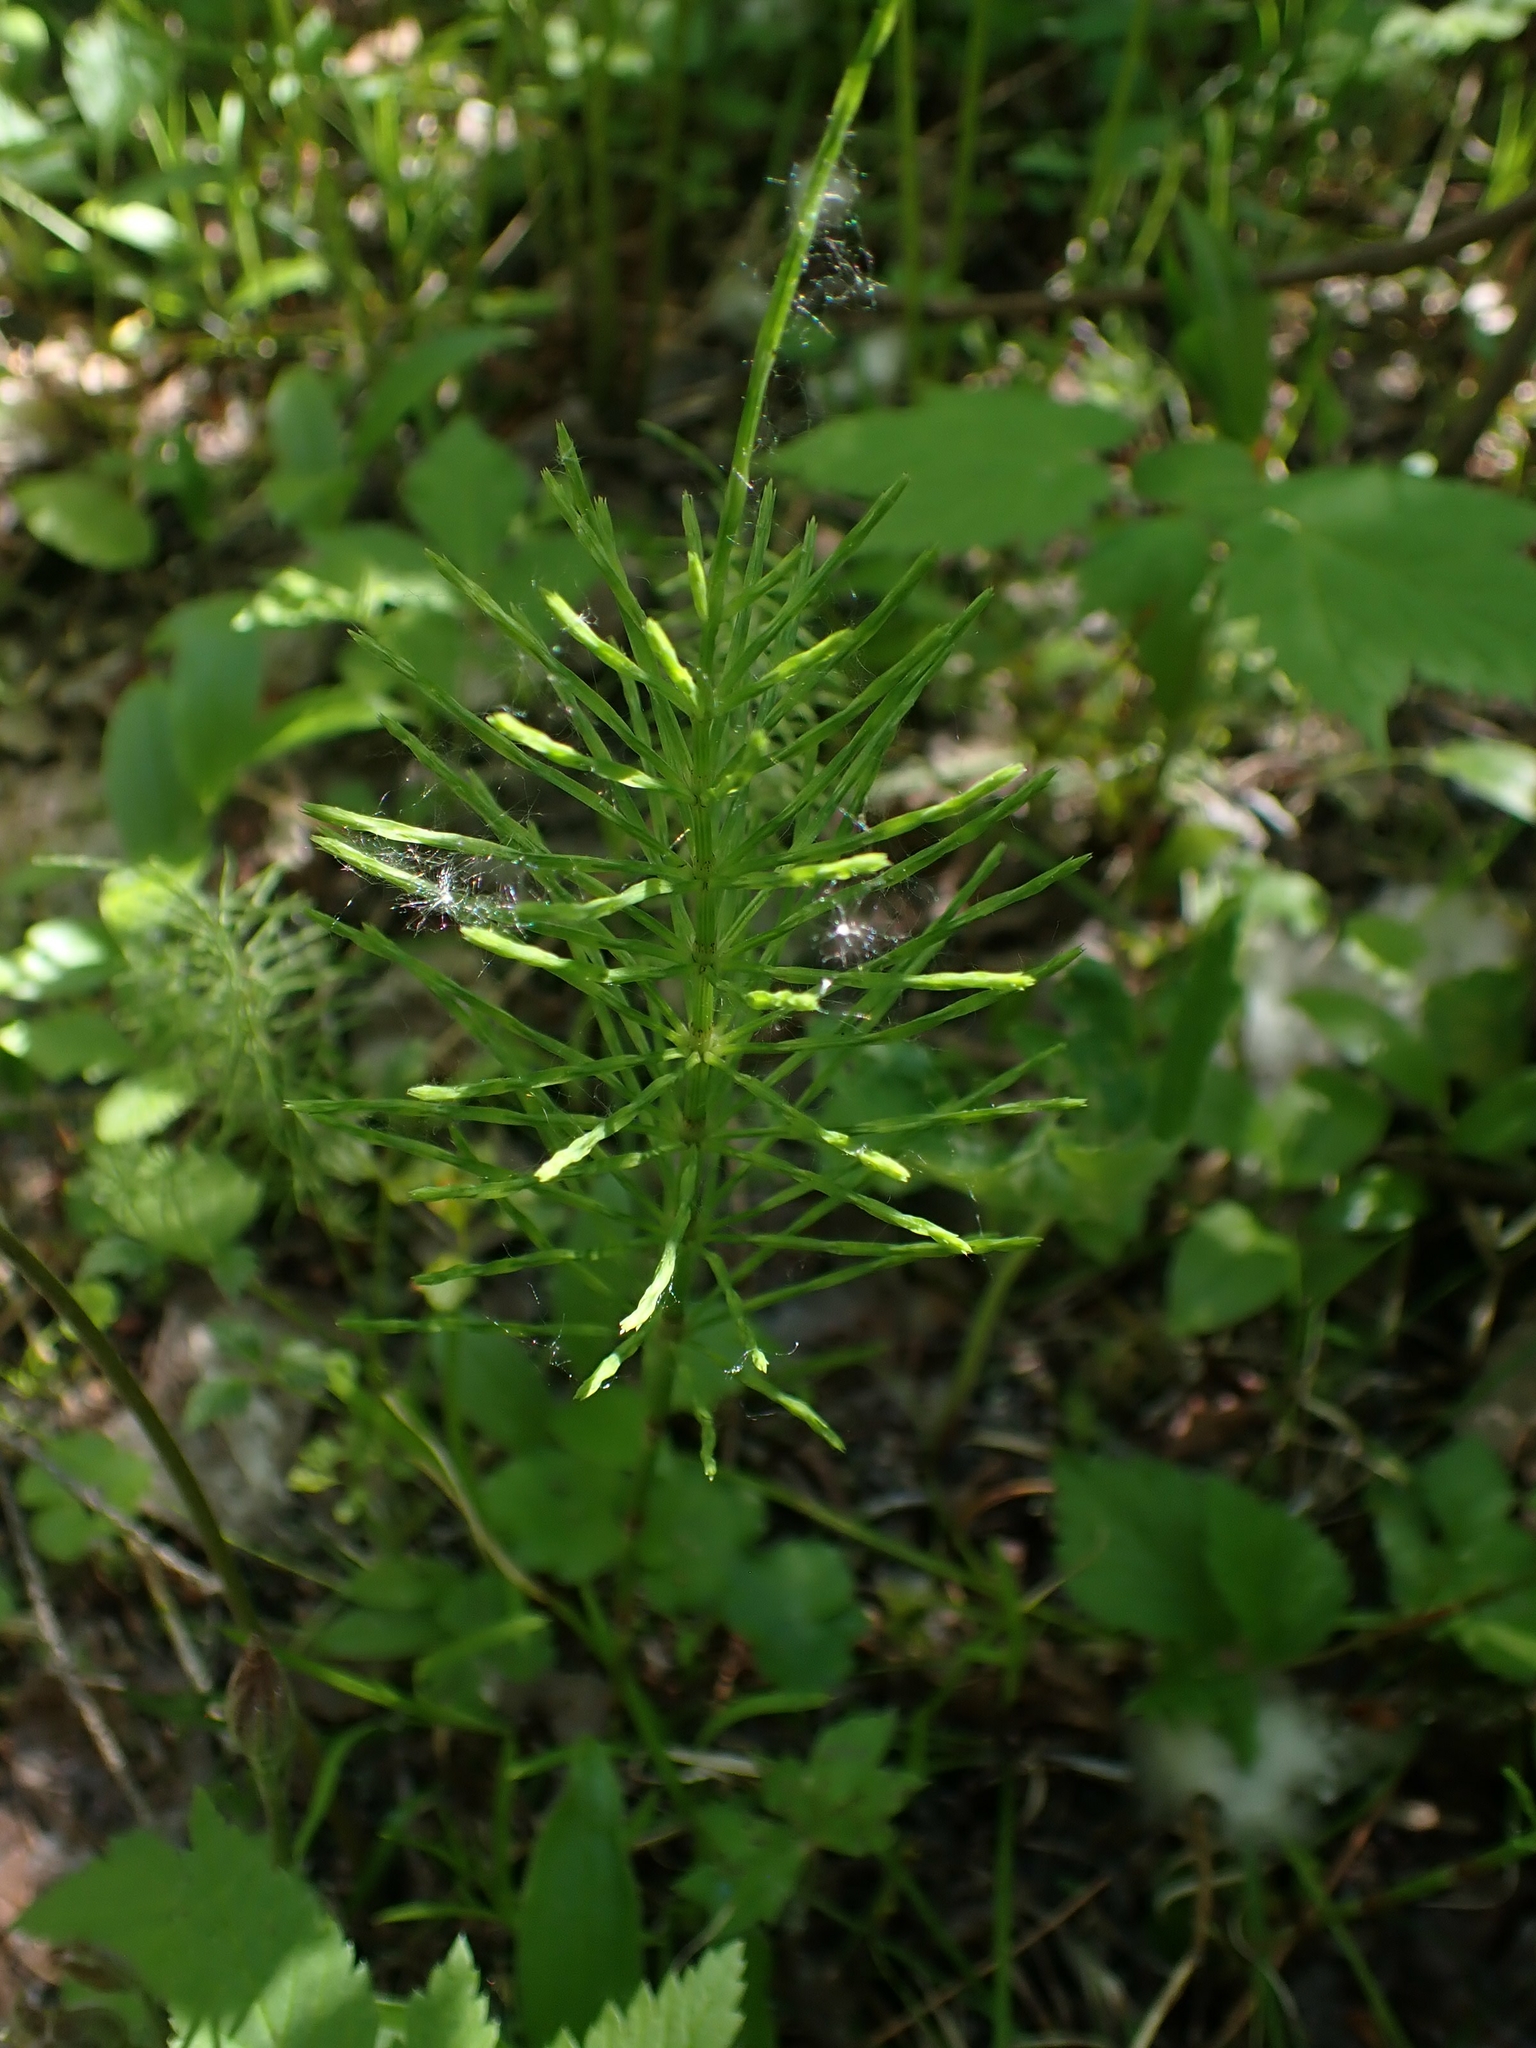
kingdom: Plantae
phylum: Tracheophyta
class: Polypodiopsida
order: Equisetales
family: Equisetaceae
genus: Equisetum
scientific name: Equisetum arvense
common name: Field horsetail
